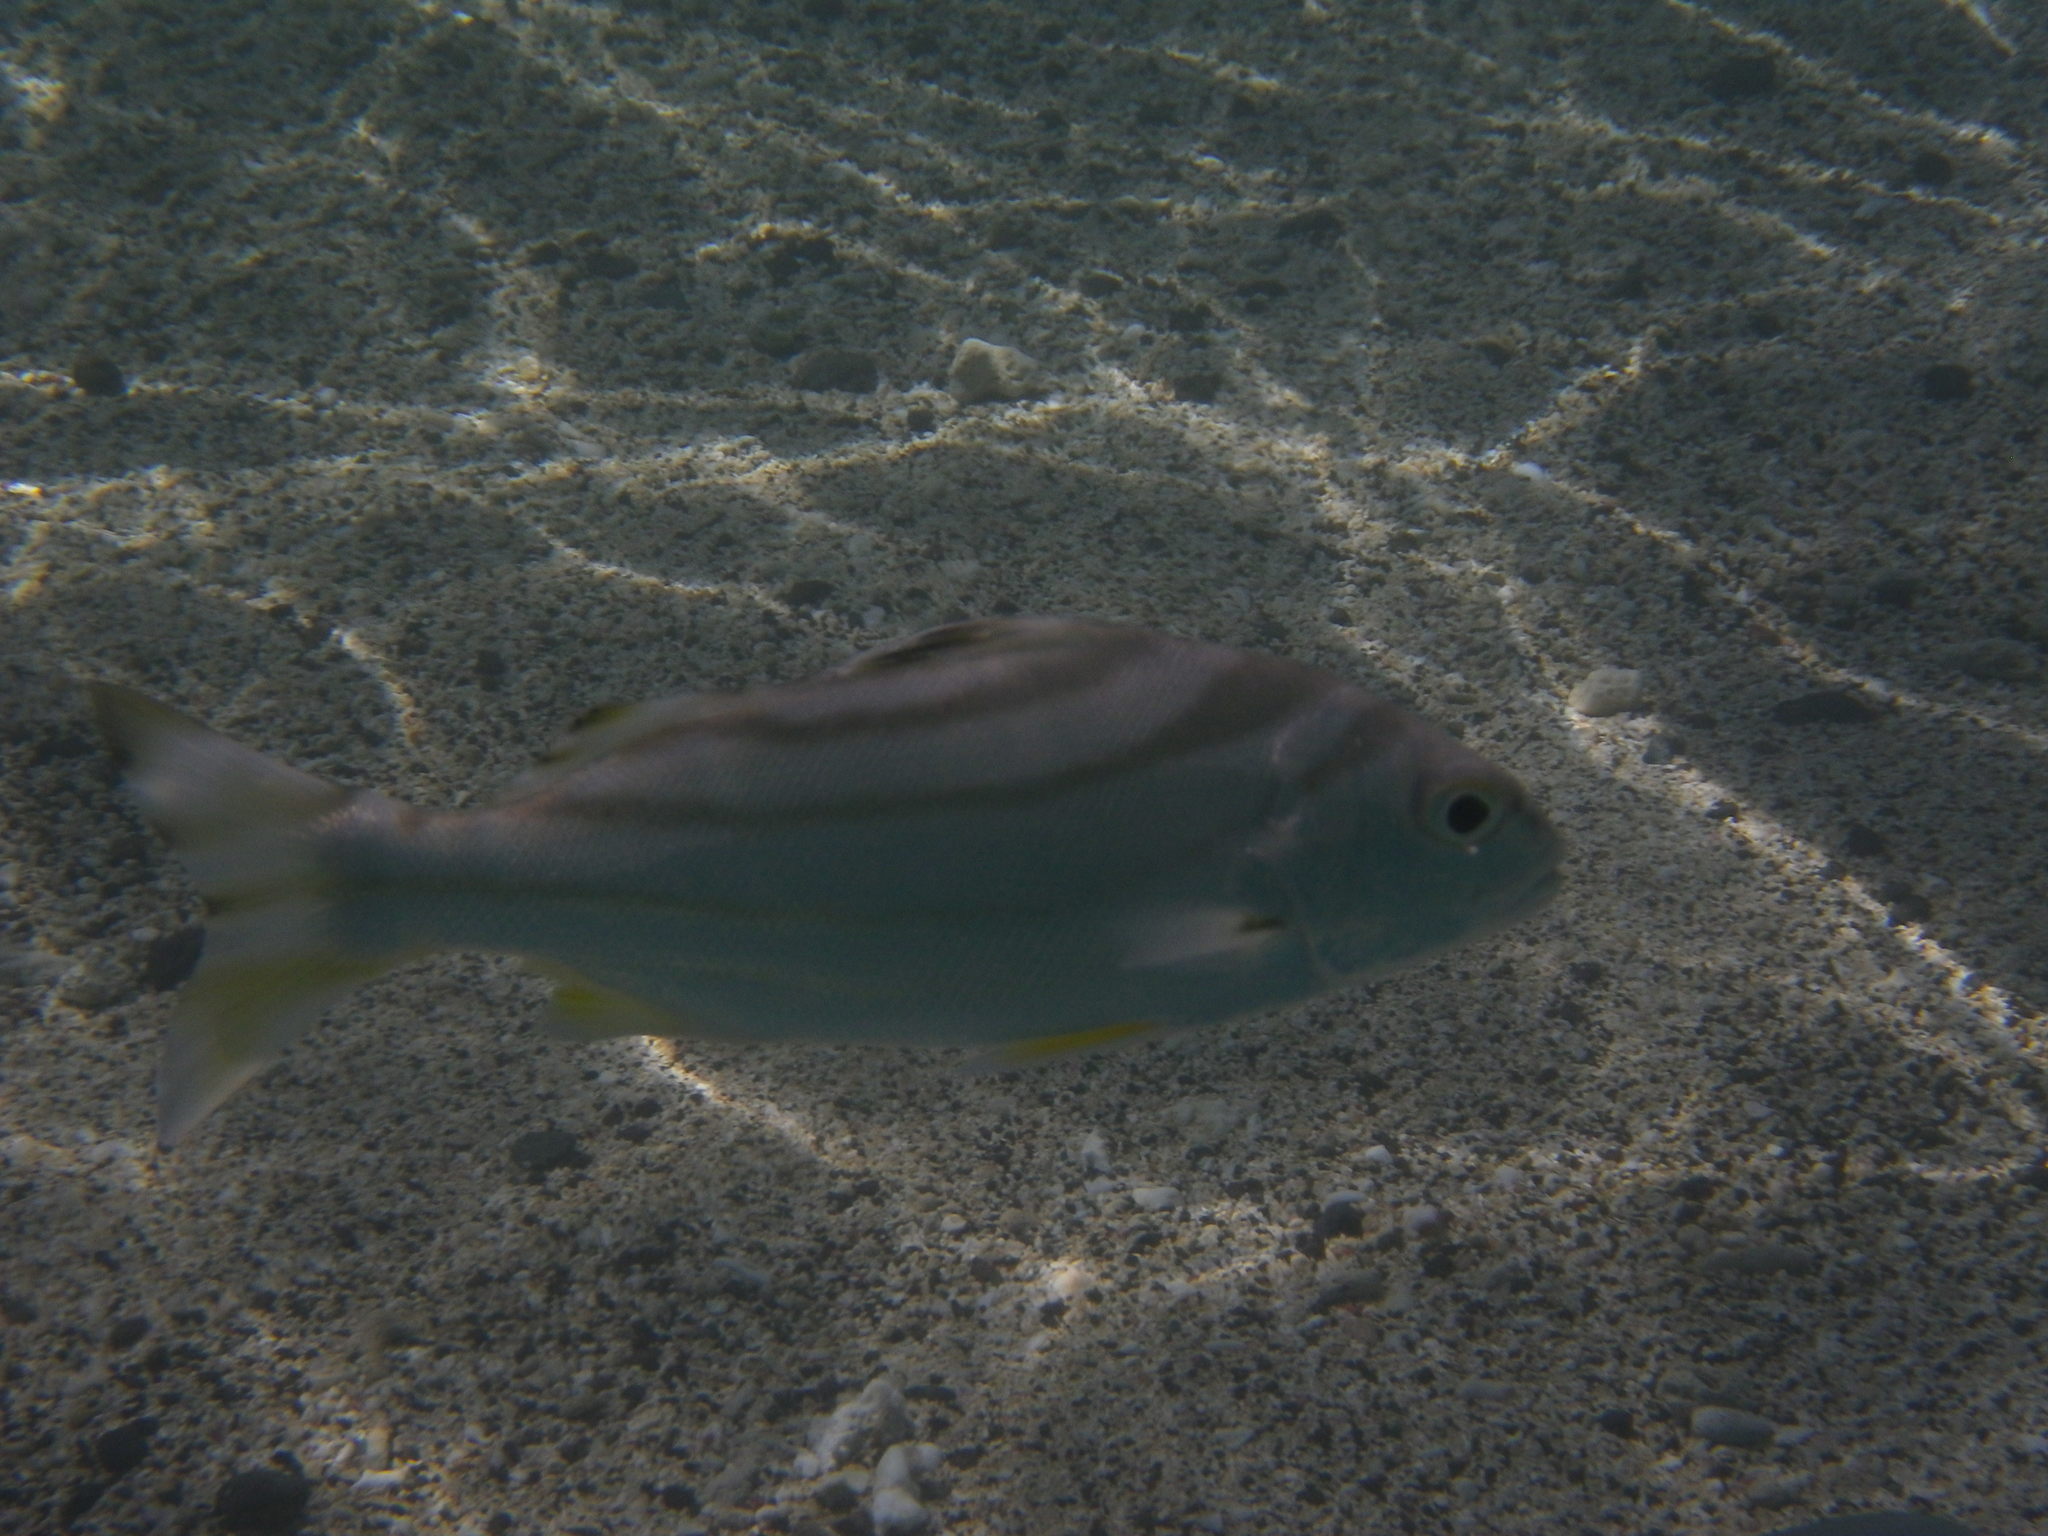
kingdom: Animalia
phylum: Chordata
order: Perciformes
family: Terapontidae
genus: Terapon
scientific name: Terapon jarbua
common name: Jarbua terapon
